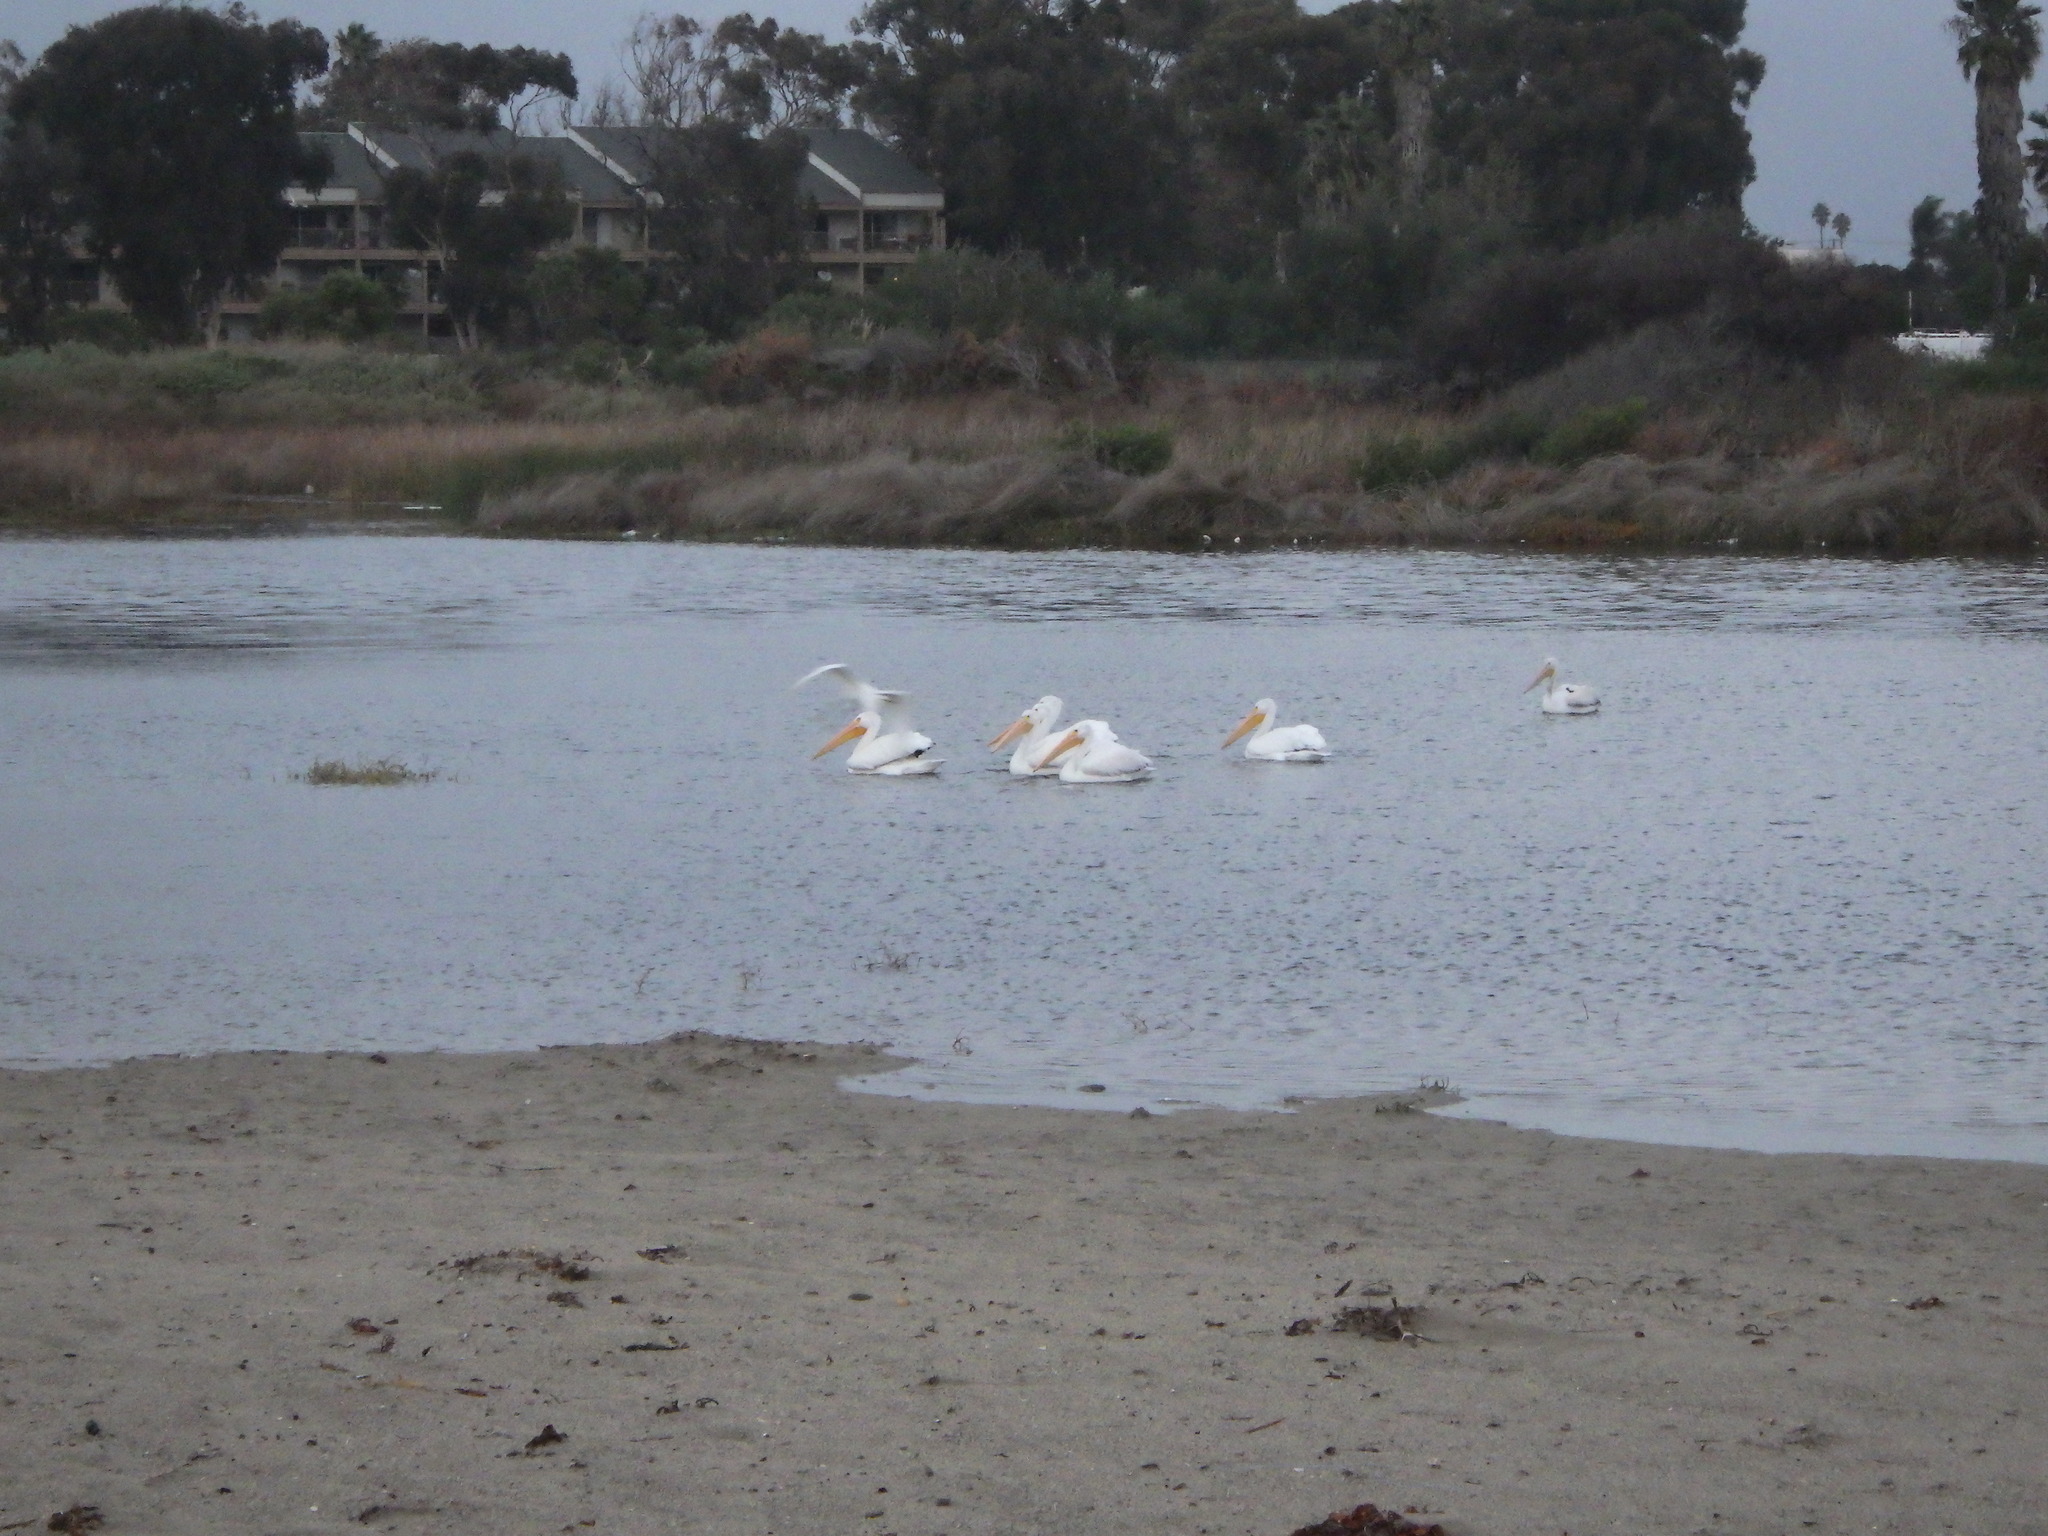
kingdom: Animalia
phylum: Chordata
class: Aves
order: Pelecaniformes
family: Pelecanidae
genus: Pelecanus
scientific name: Pelecanus erythrorhynchos
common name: American white pelican
